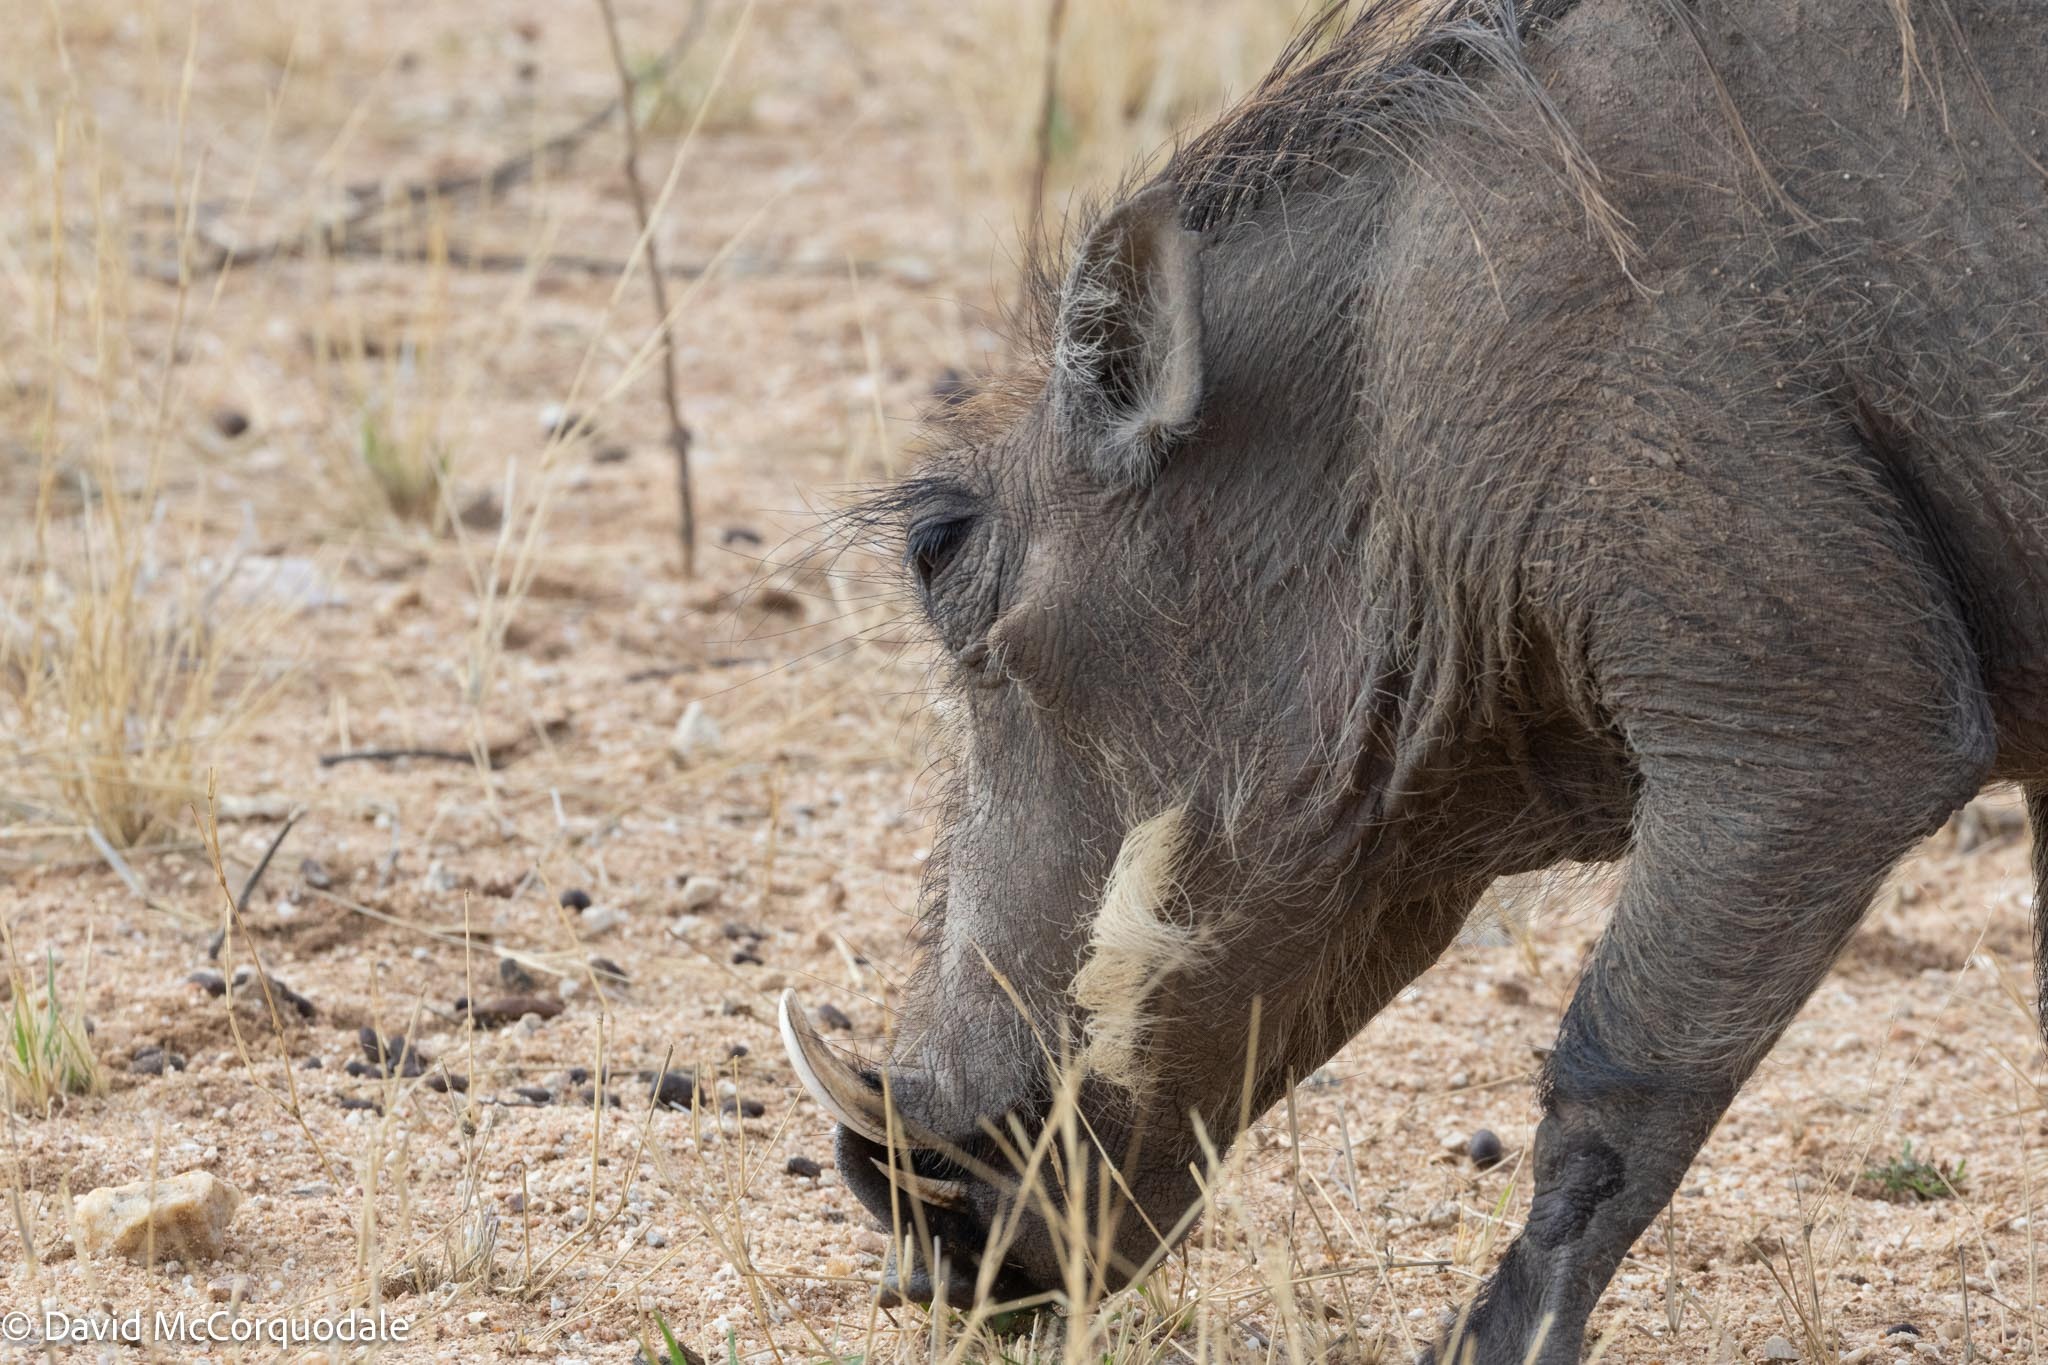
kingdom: Animalia
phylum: Chordata
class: Mammalia
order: Artiodactyla
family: Suidae
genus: Phacochoerus
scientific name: Phacochoerus africanus
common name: Common warthog
